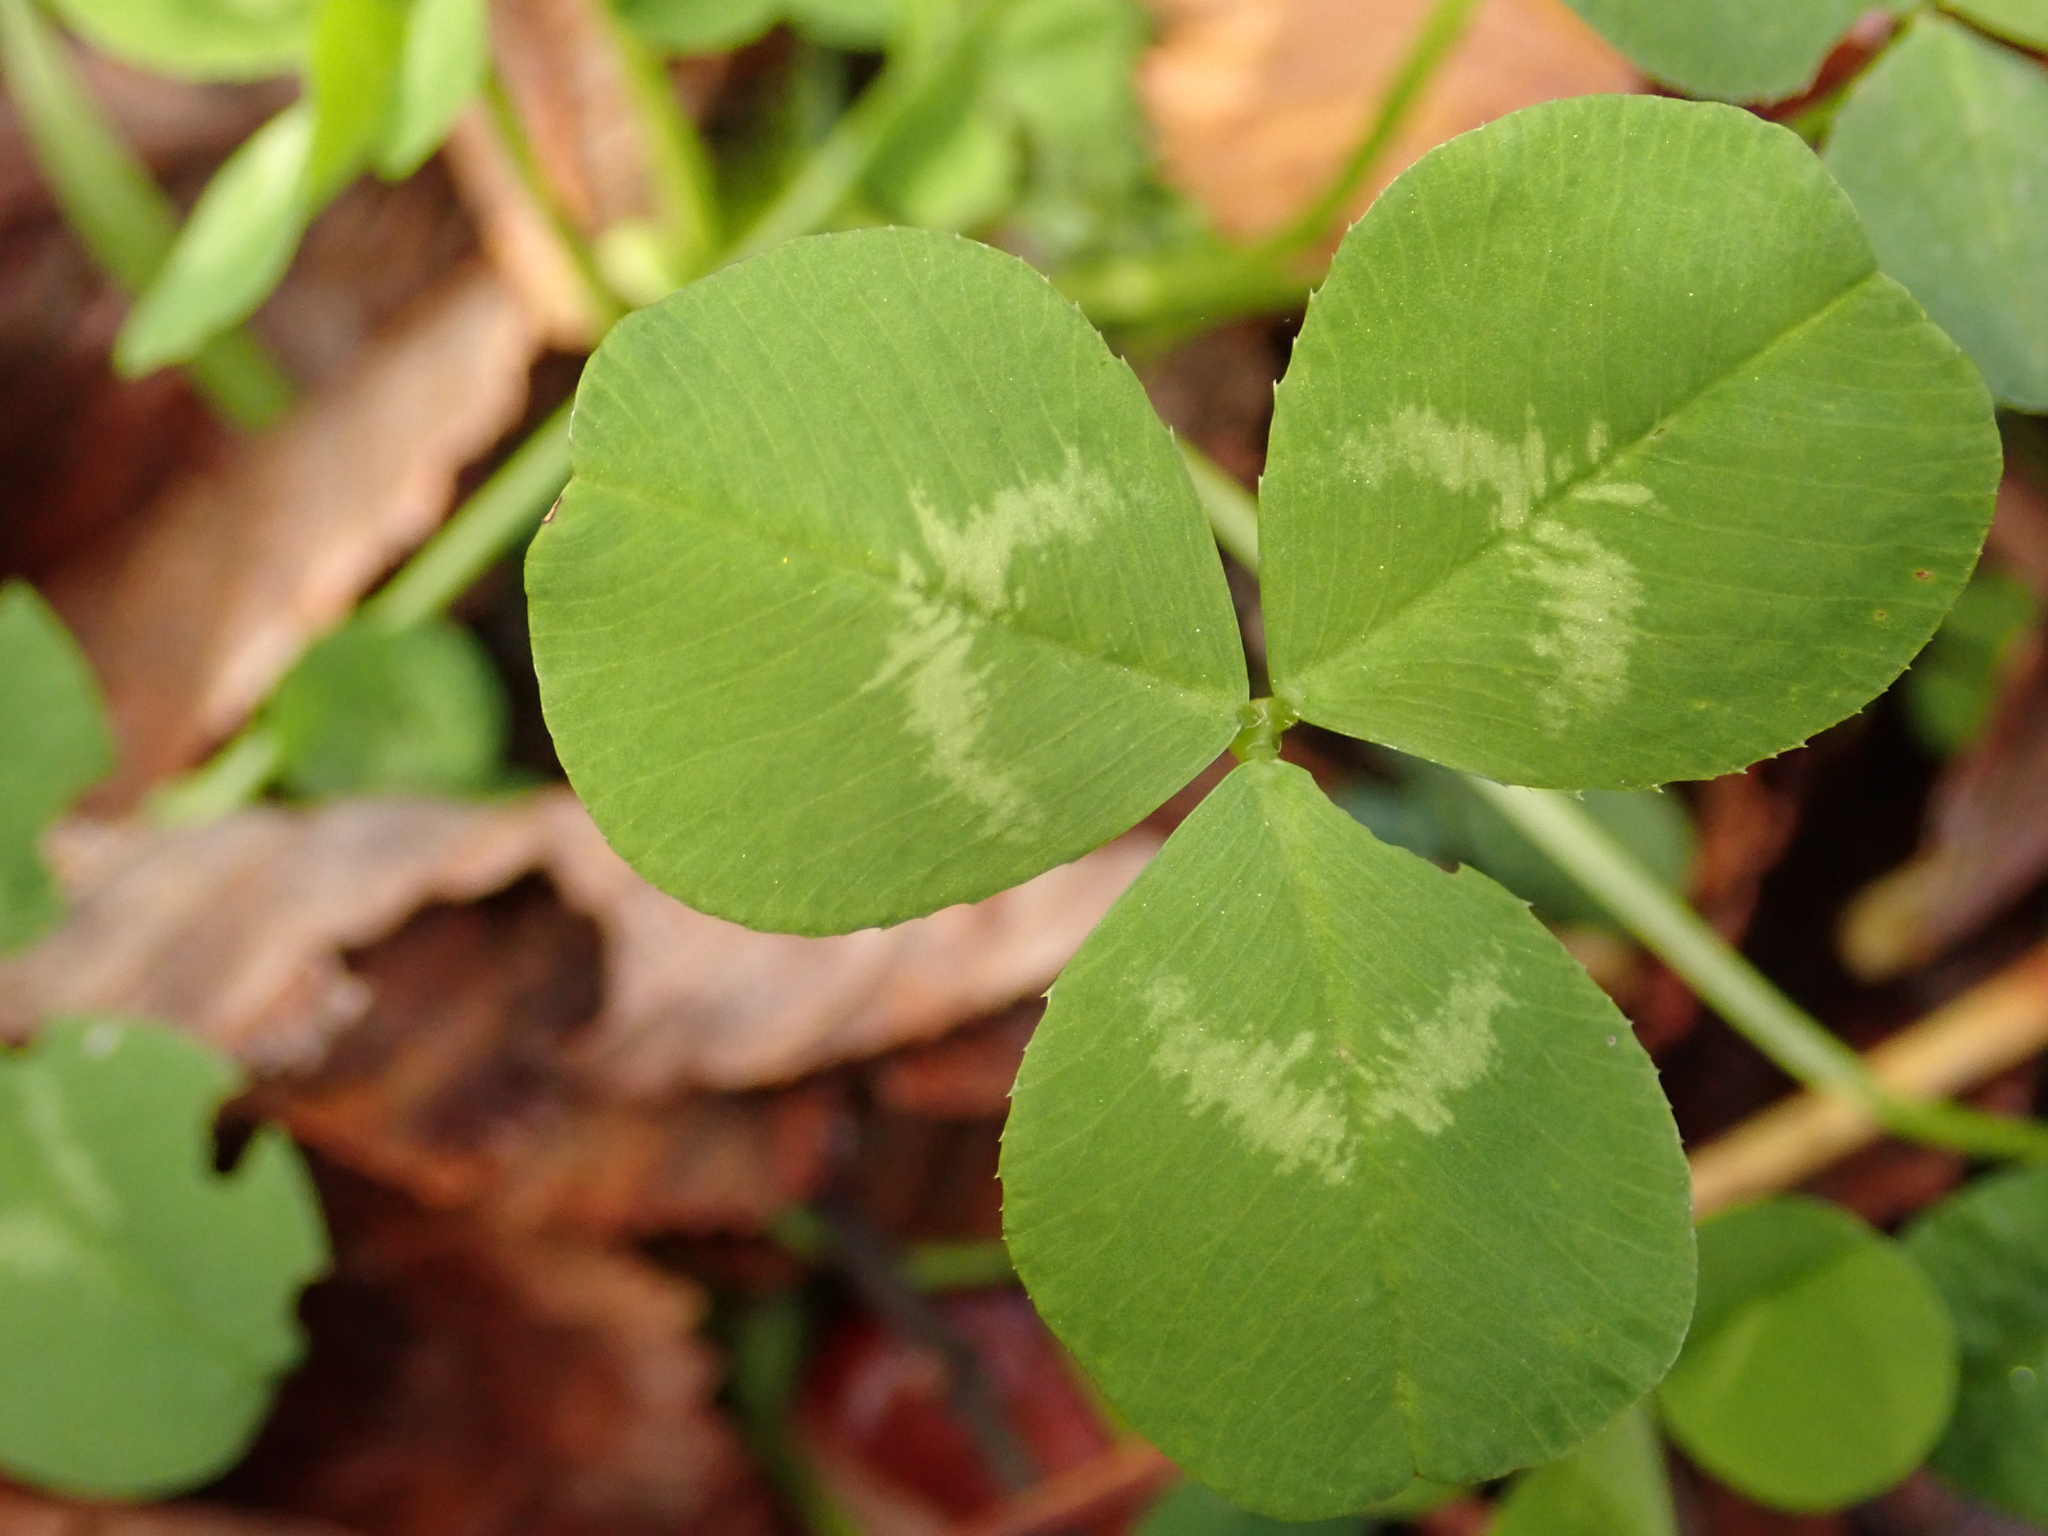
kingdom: Plantae
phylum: Tracheophyta
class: Magnoliopsida
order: Fabales
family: Fabaceae
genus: Trifolium
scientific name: Trifolium repens
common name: White clover
